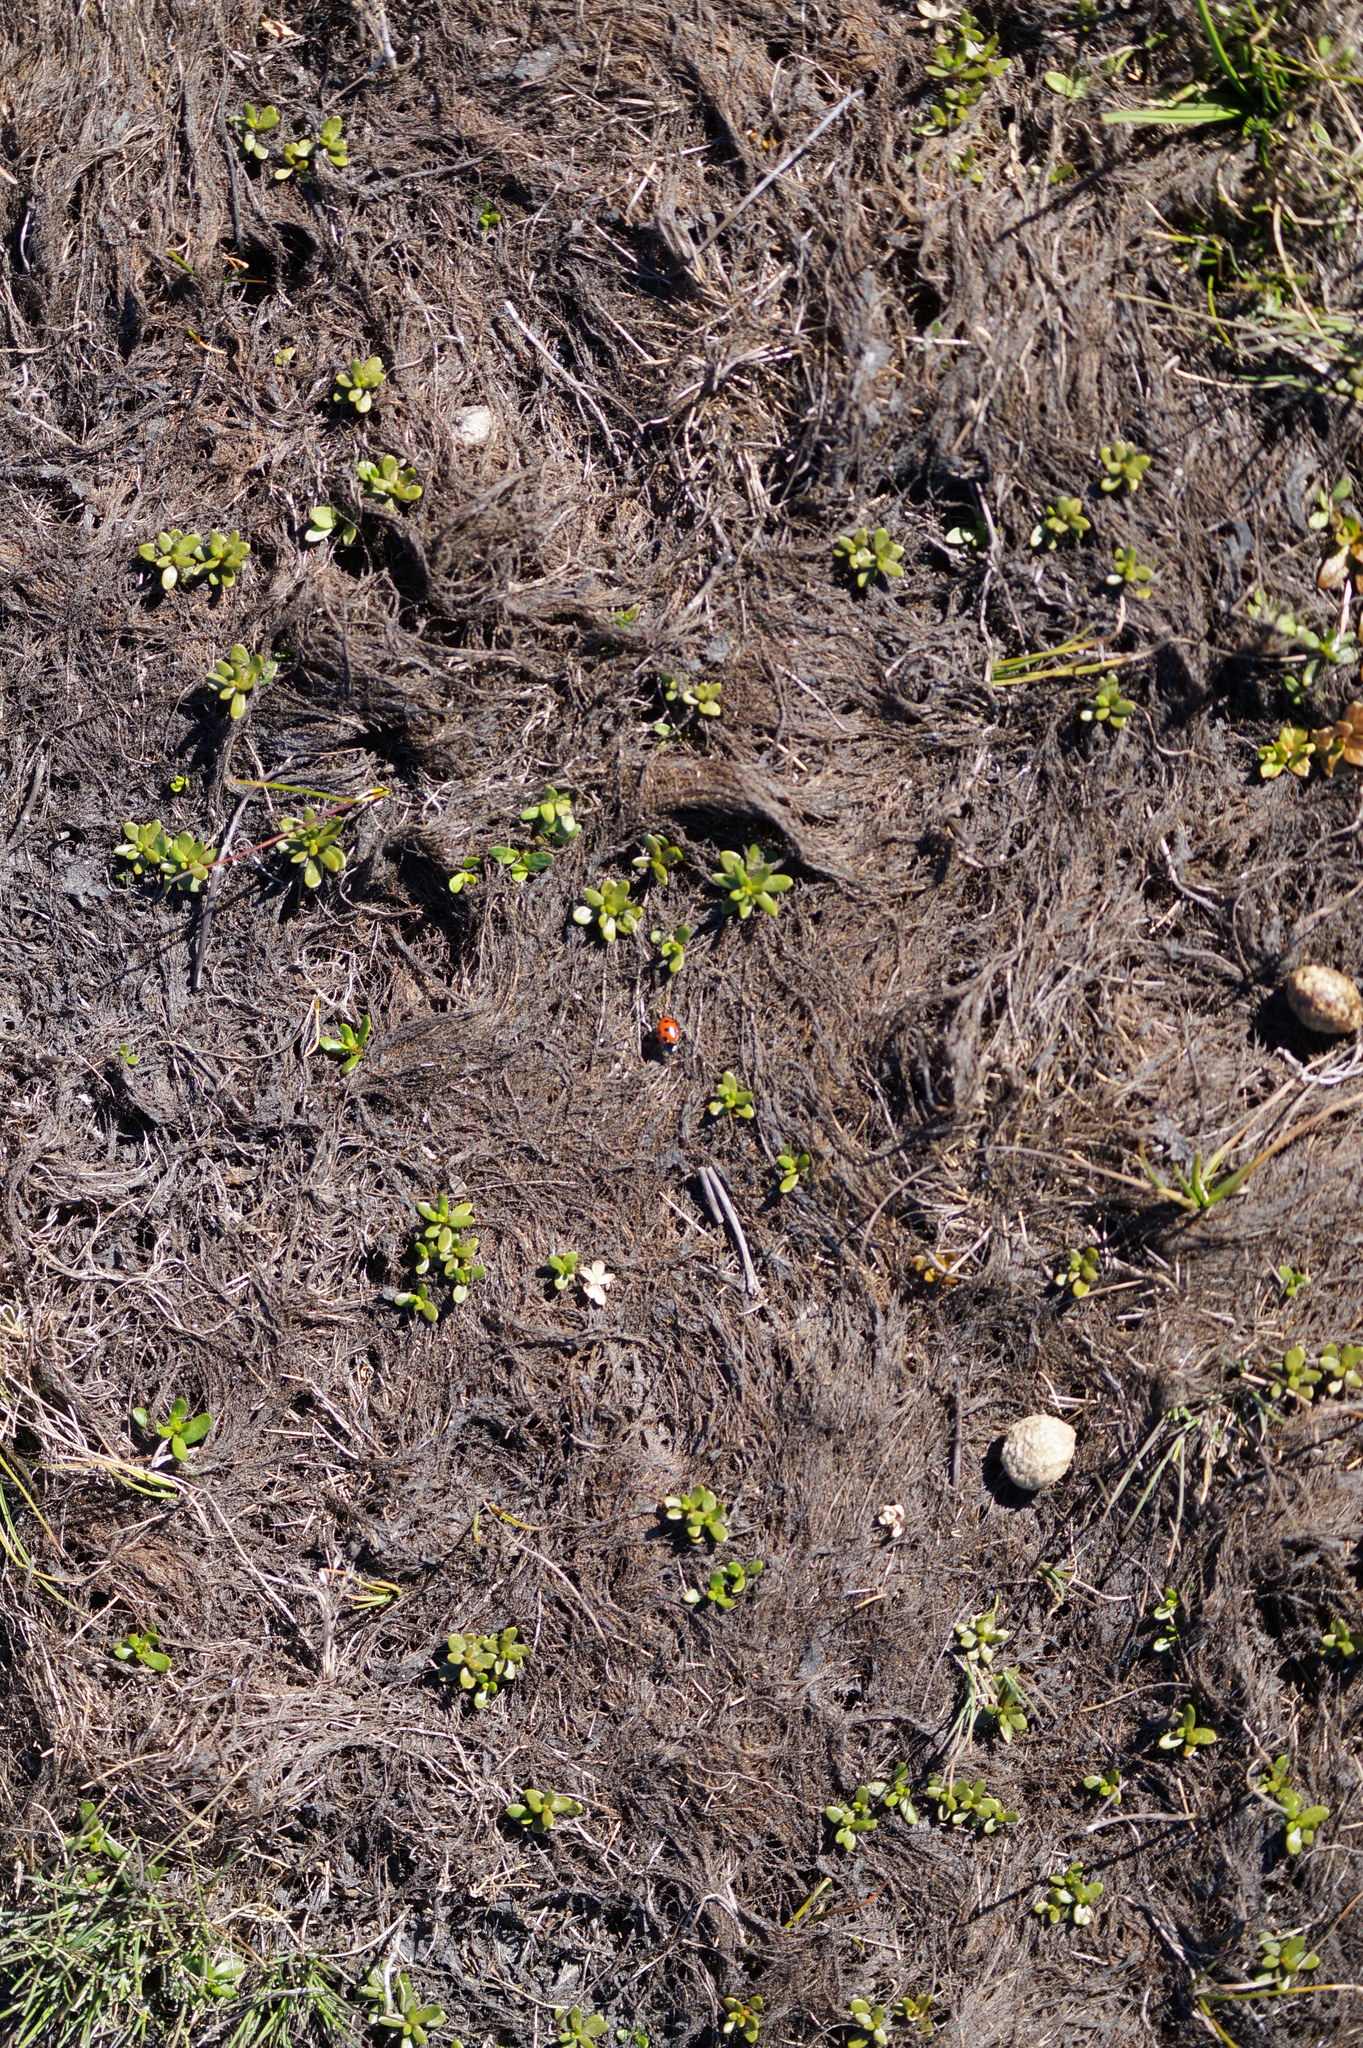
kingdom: Animalia
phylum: Arthropoda
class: Insecta
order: Coleoptera
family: Coccinellidae
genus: Coccinella
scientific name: Coccinella undecimpunctata
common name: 11-spot ladybird
